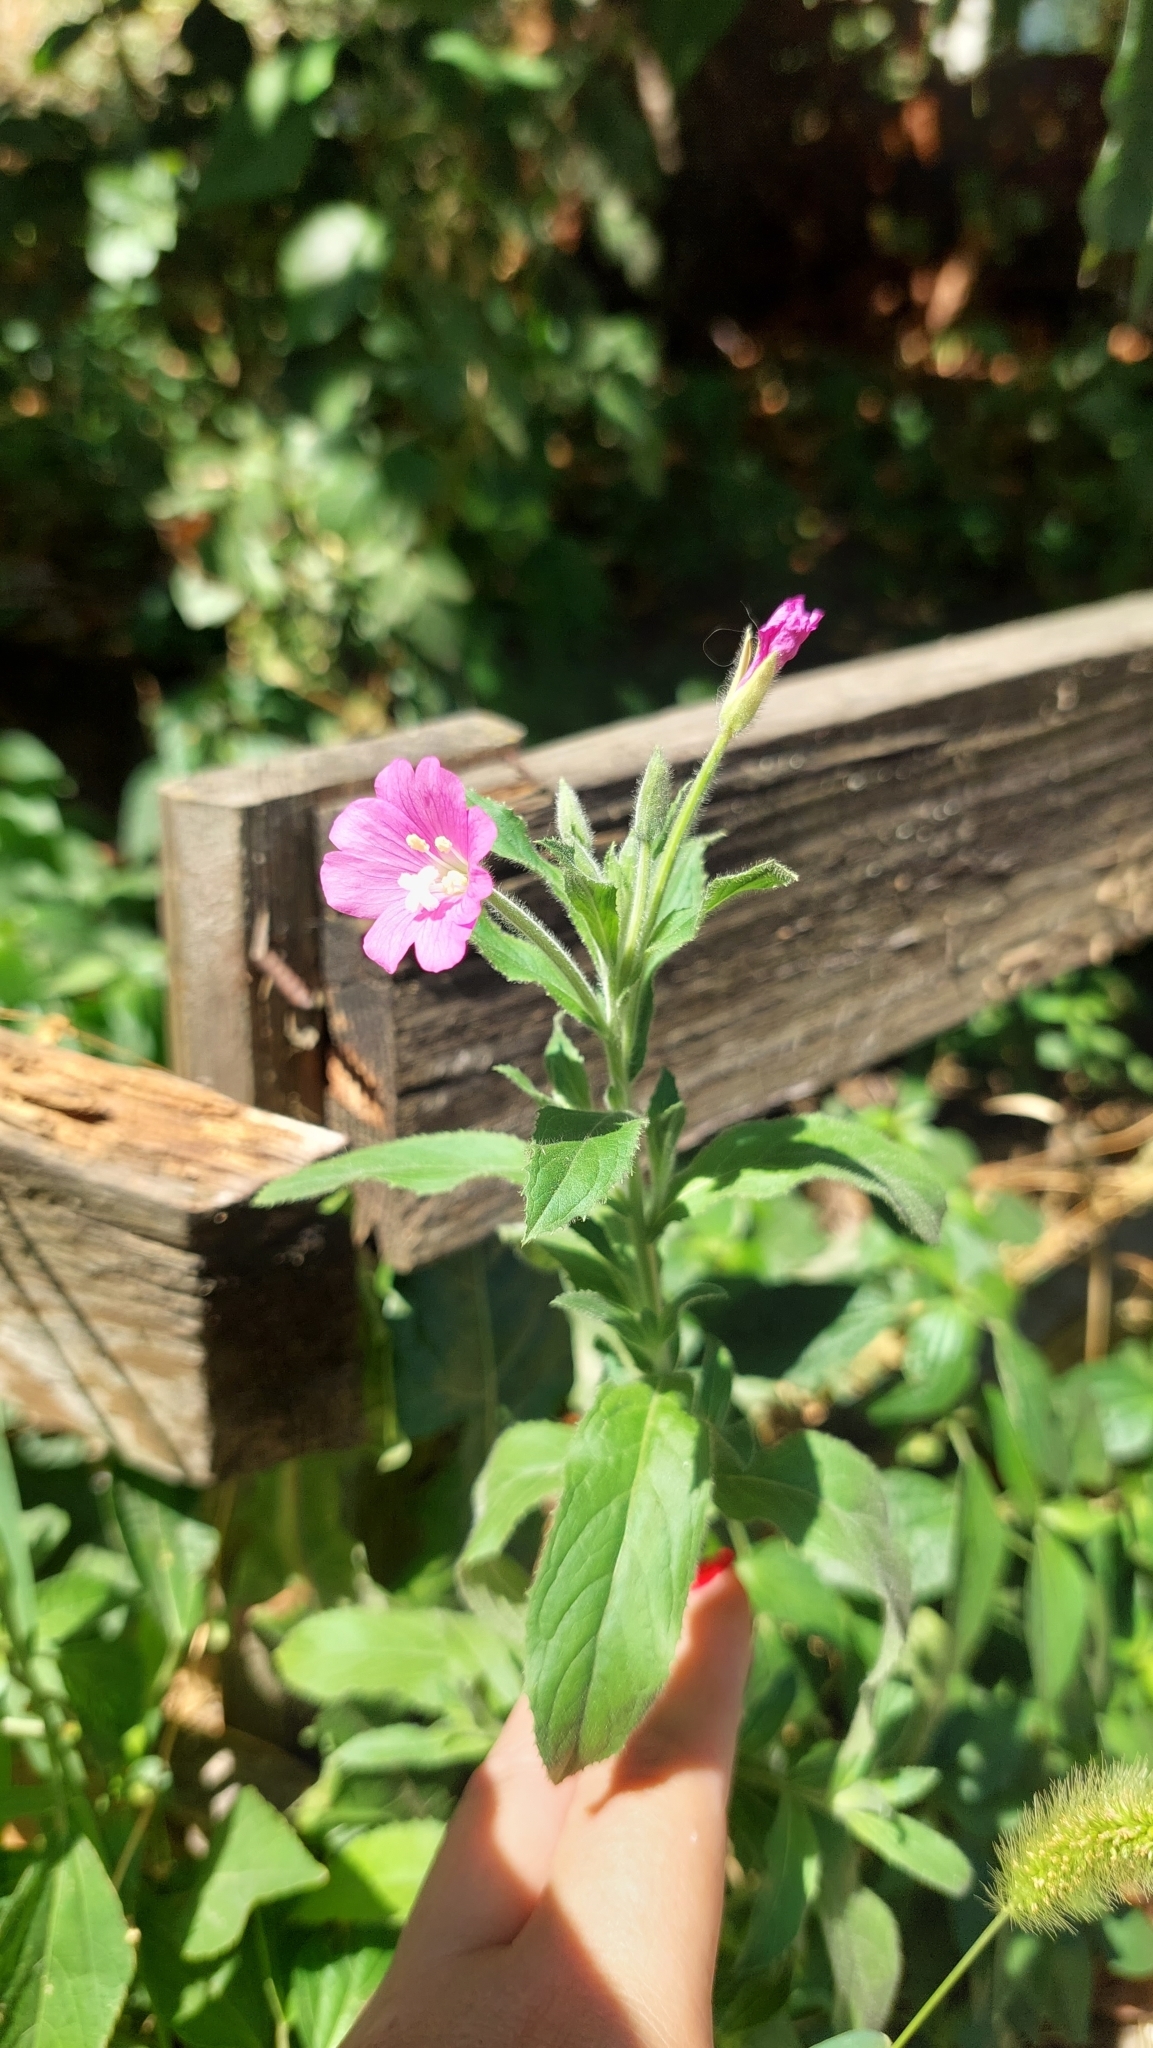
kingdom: Plantae
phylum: Tracheophyta
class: Magnoliopsida
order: Myrtales
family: Onagraceae
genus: Epilobium
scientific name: Epilobium hirsutum
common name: Great willowherb
